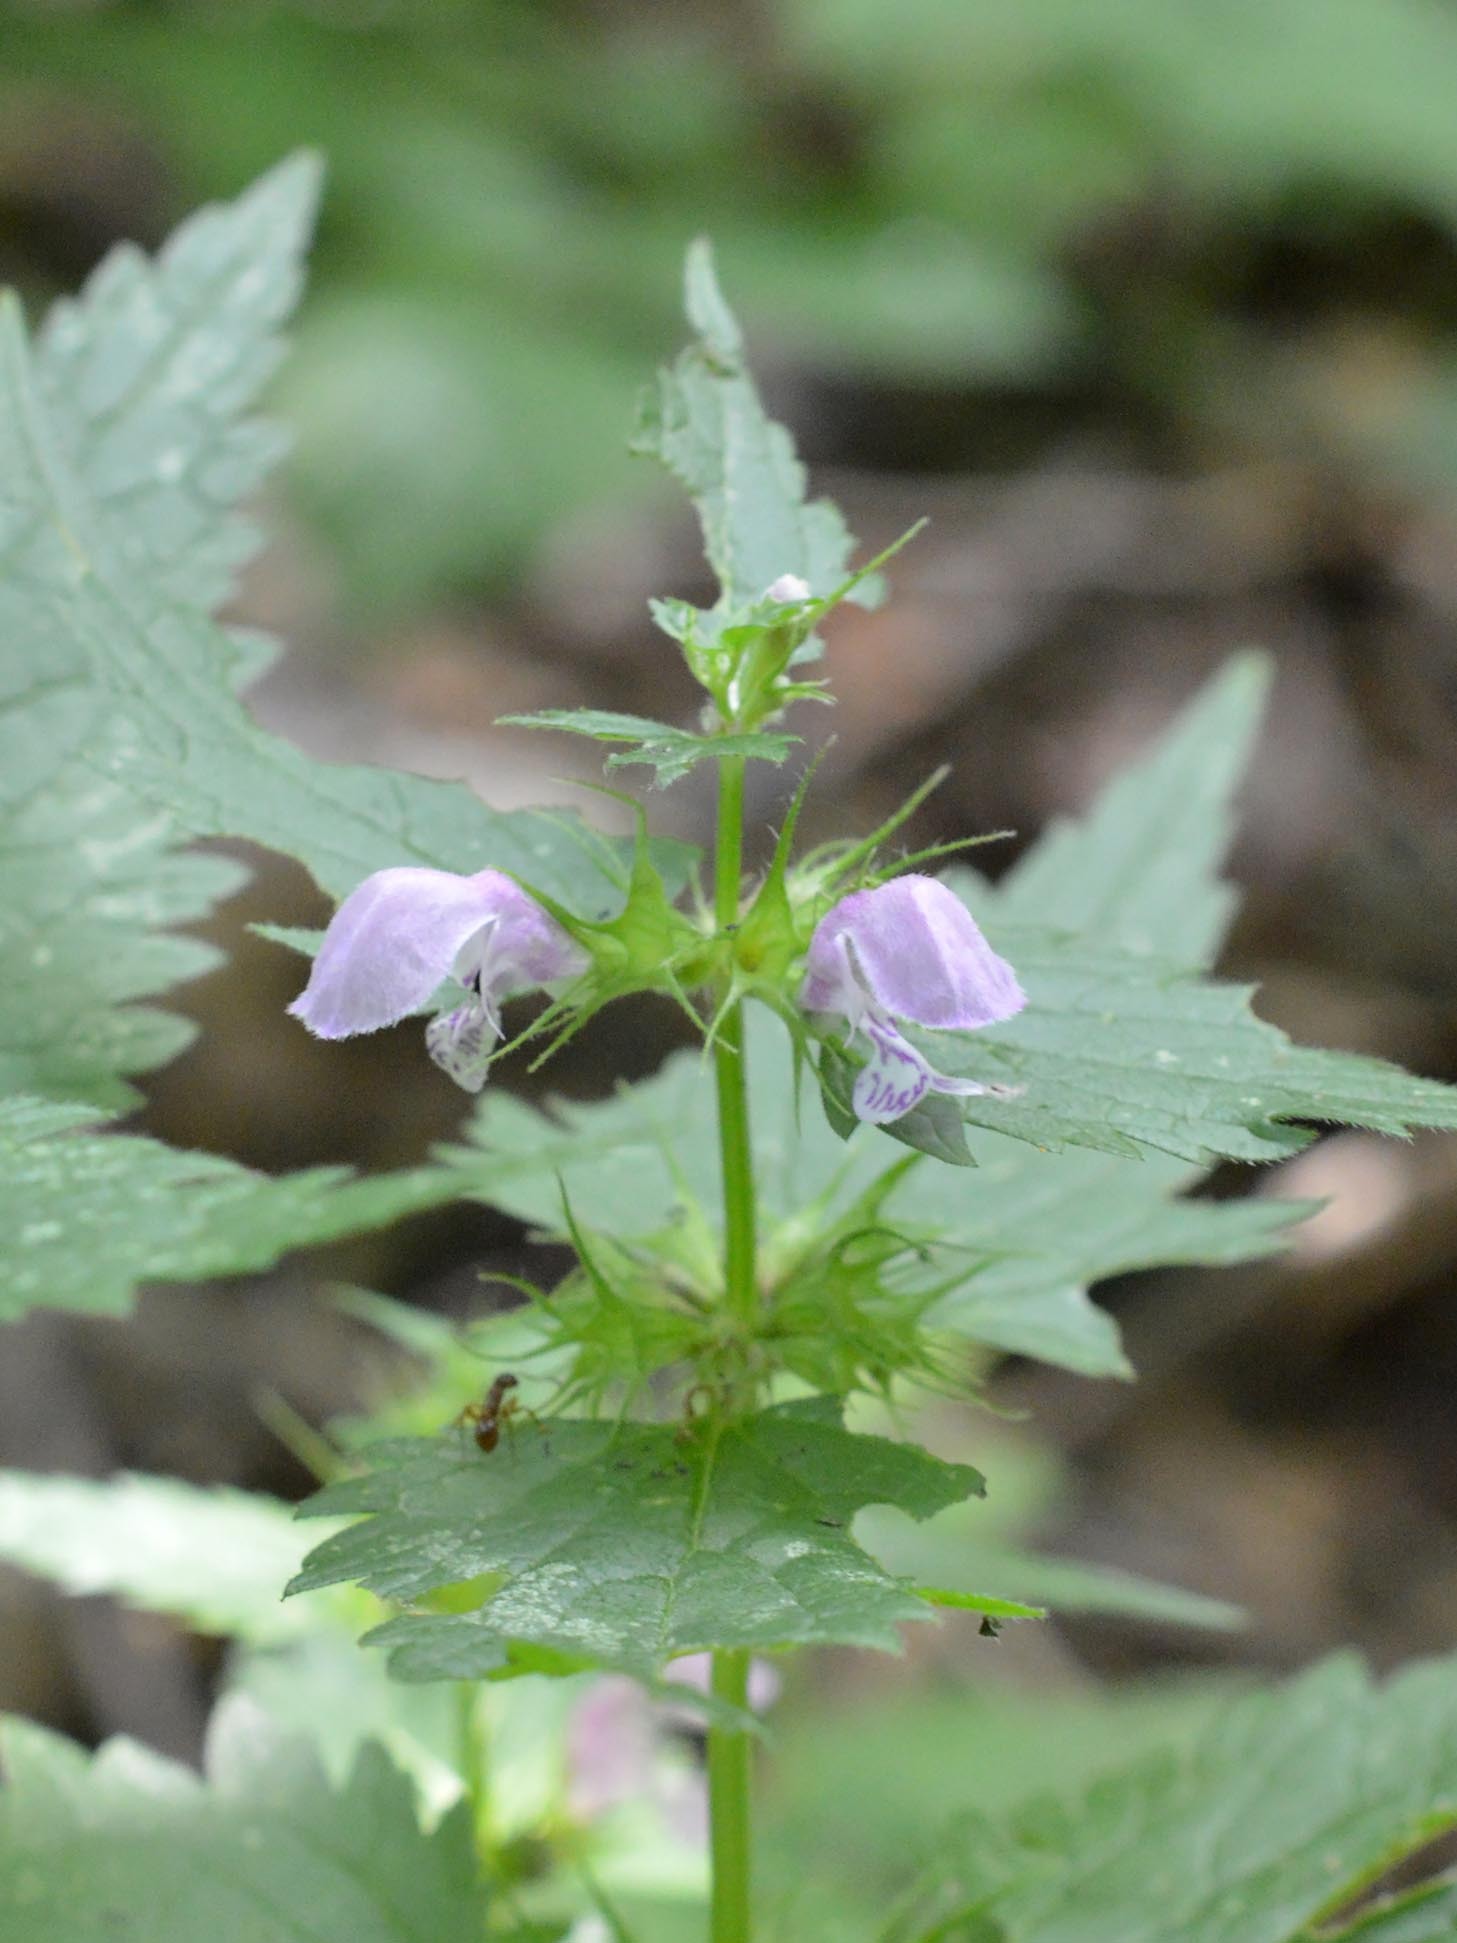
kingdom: Plantae
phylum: Tracheophyta
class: Magnoliopsida
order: Lamiales
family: Lamiaceae
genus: Lamium
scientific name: Lamium maculatum
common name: Spotted dead-nettle
